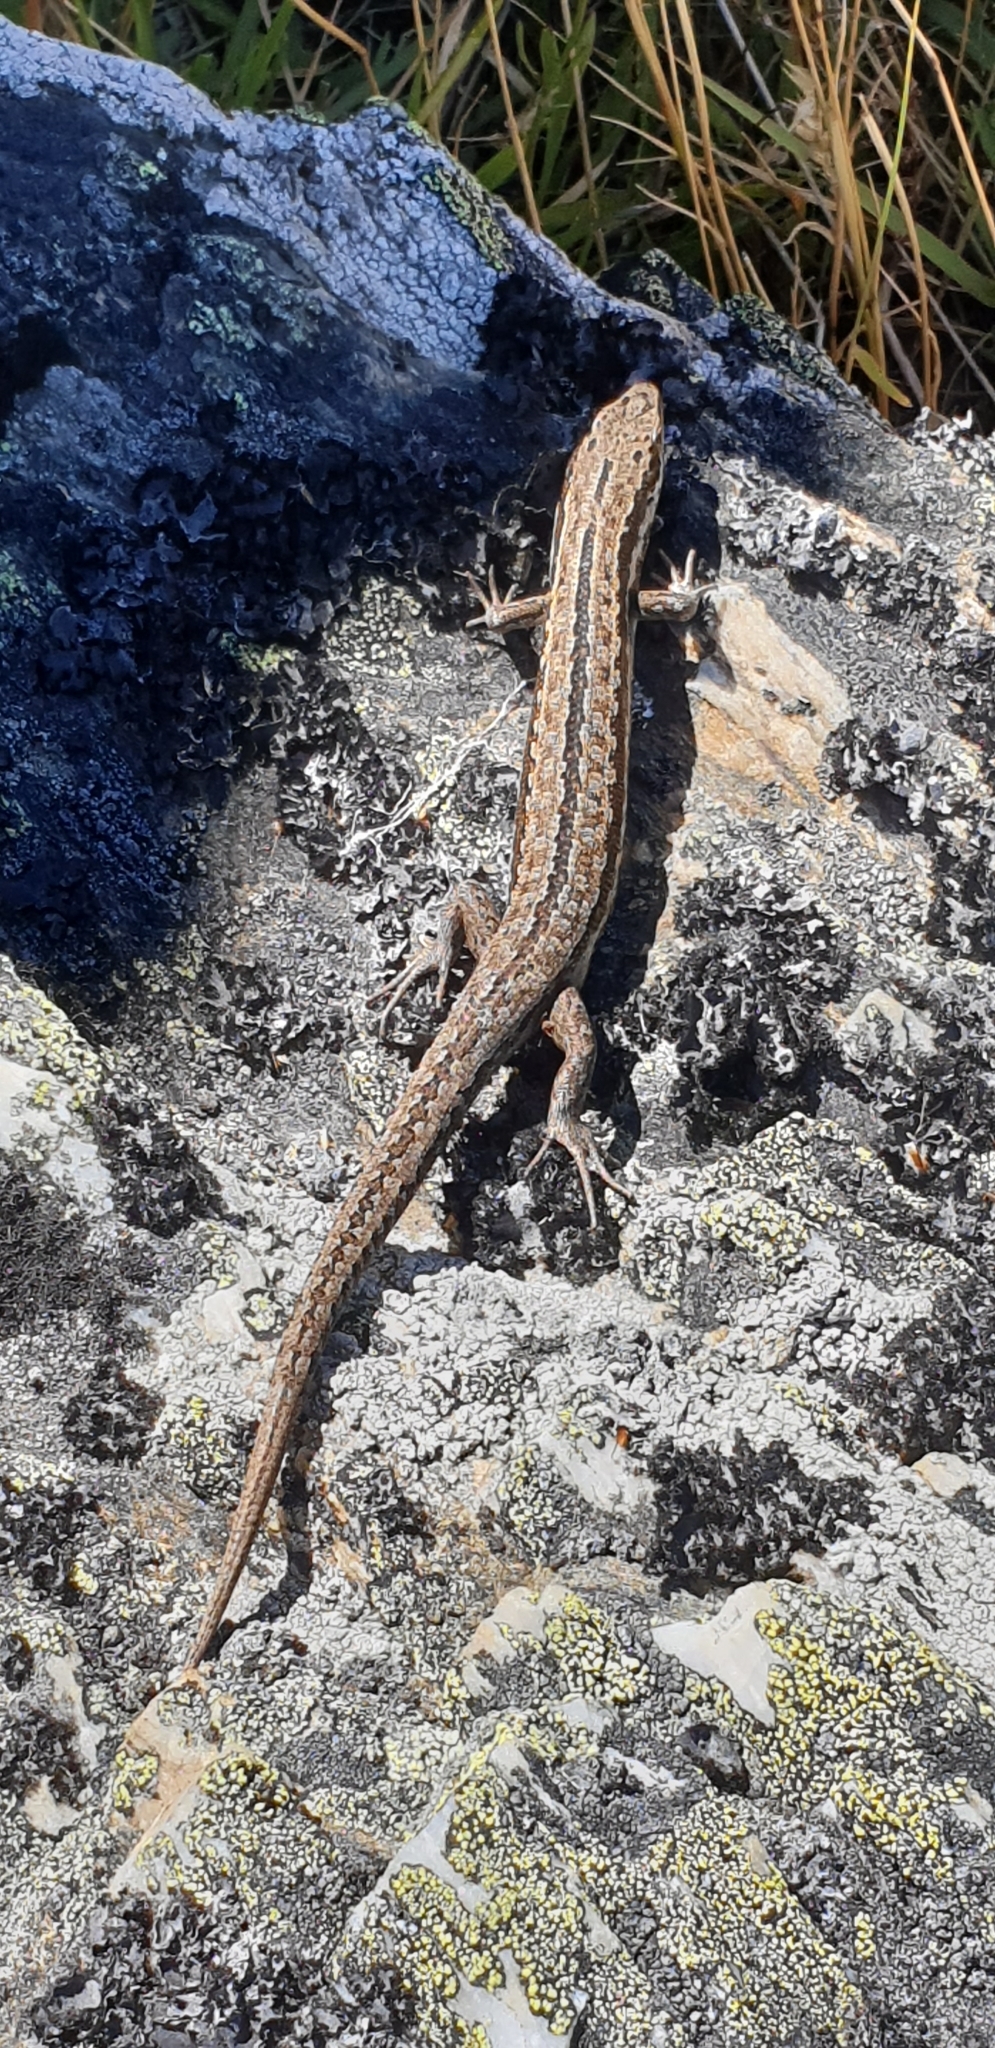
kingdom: Animalia
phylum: Chordata
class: Squamata
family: Scincidae
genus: Oligosoma
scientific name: Oligosoma maccanni
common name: Mccann’s skink
